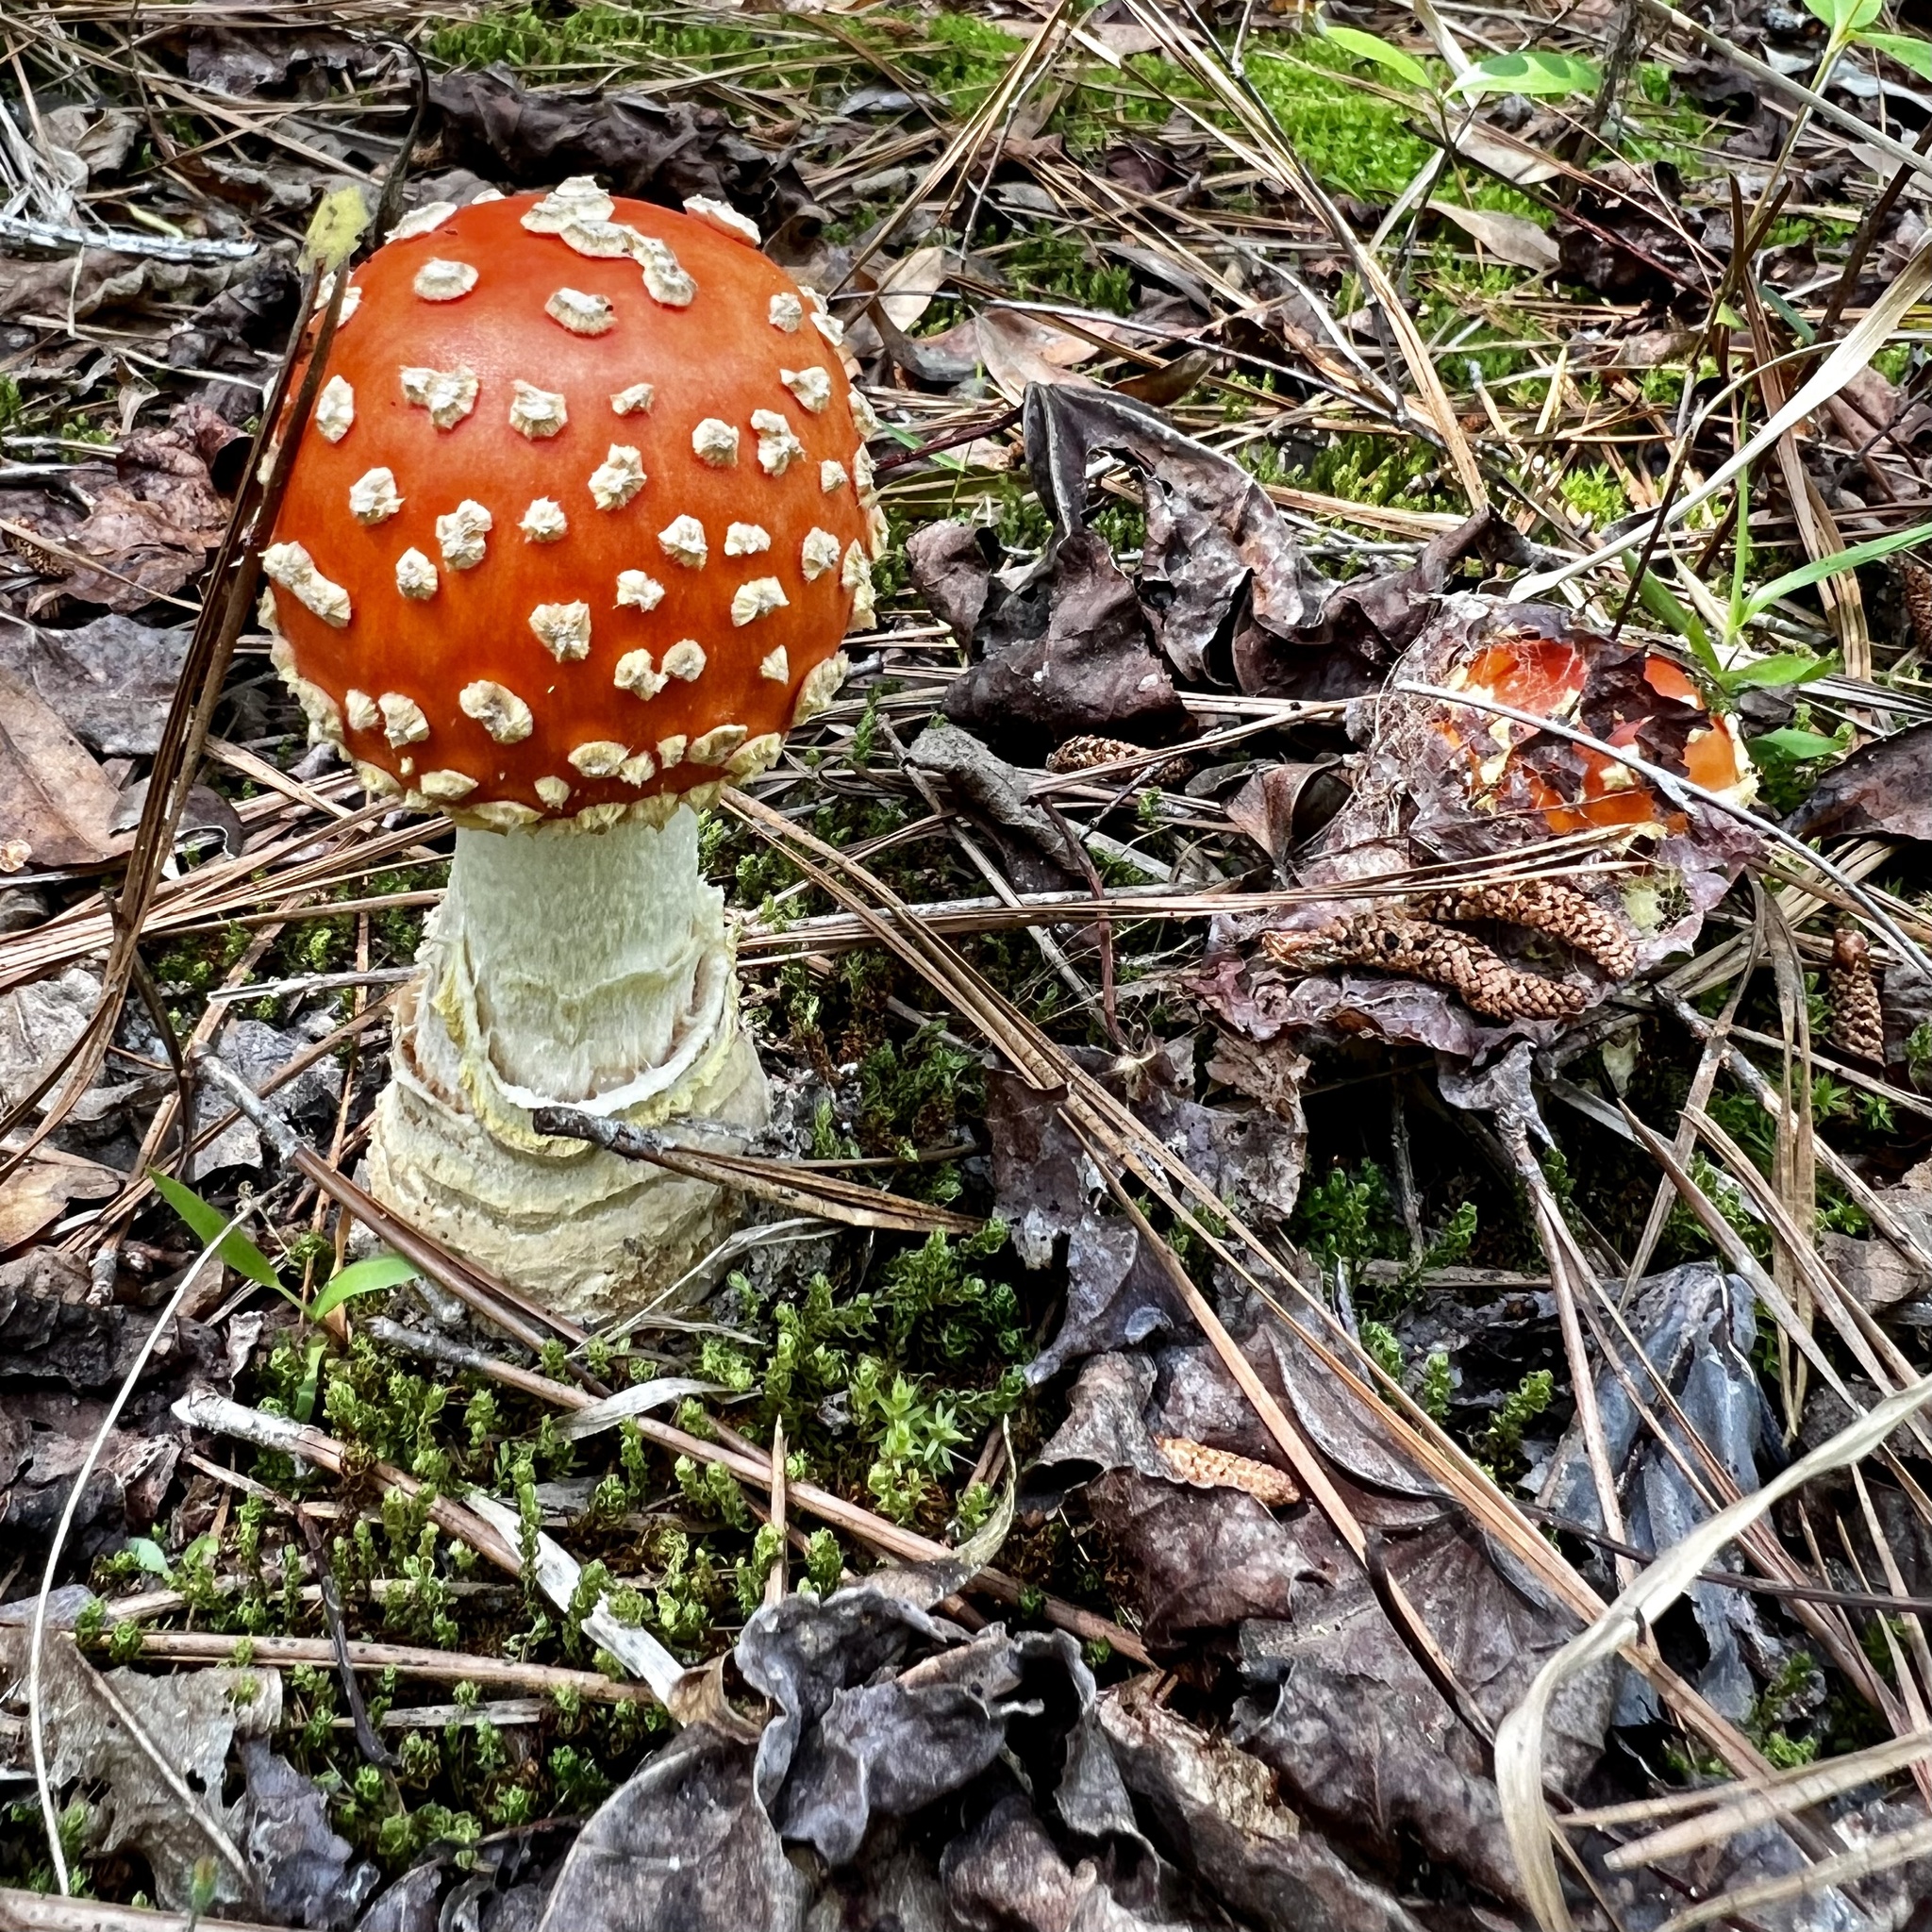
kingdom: Fungi
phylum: Basidiomycota
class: Agaricomycetes
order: Agaricales
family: Amanitaceae
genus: Amanita
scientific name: Amanita persicina
